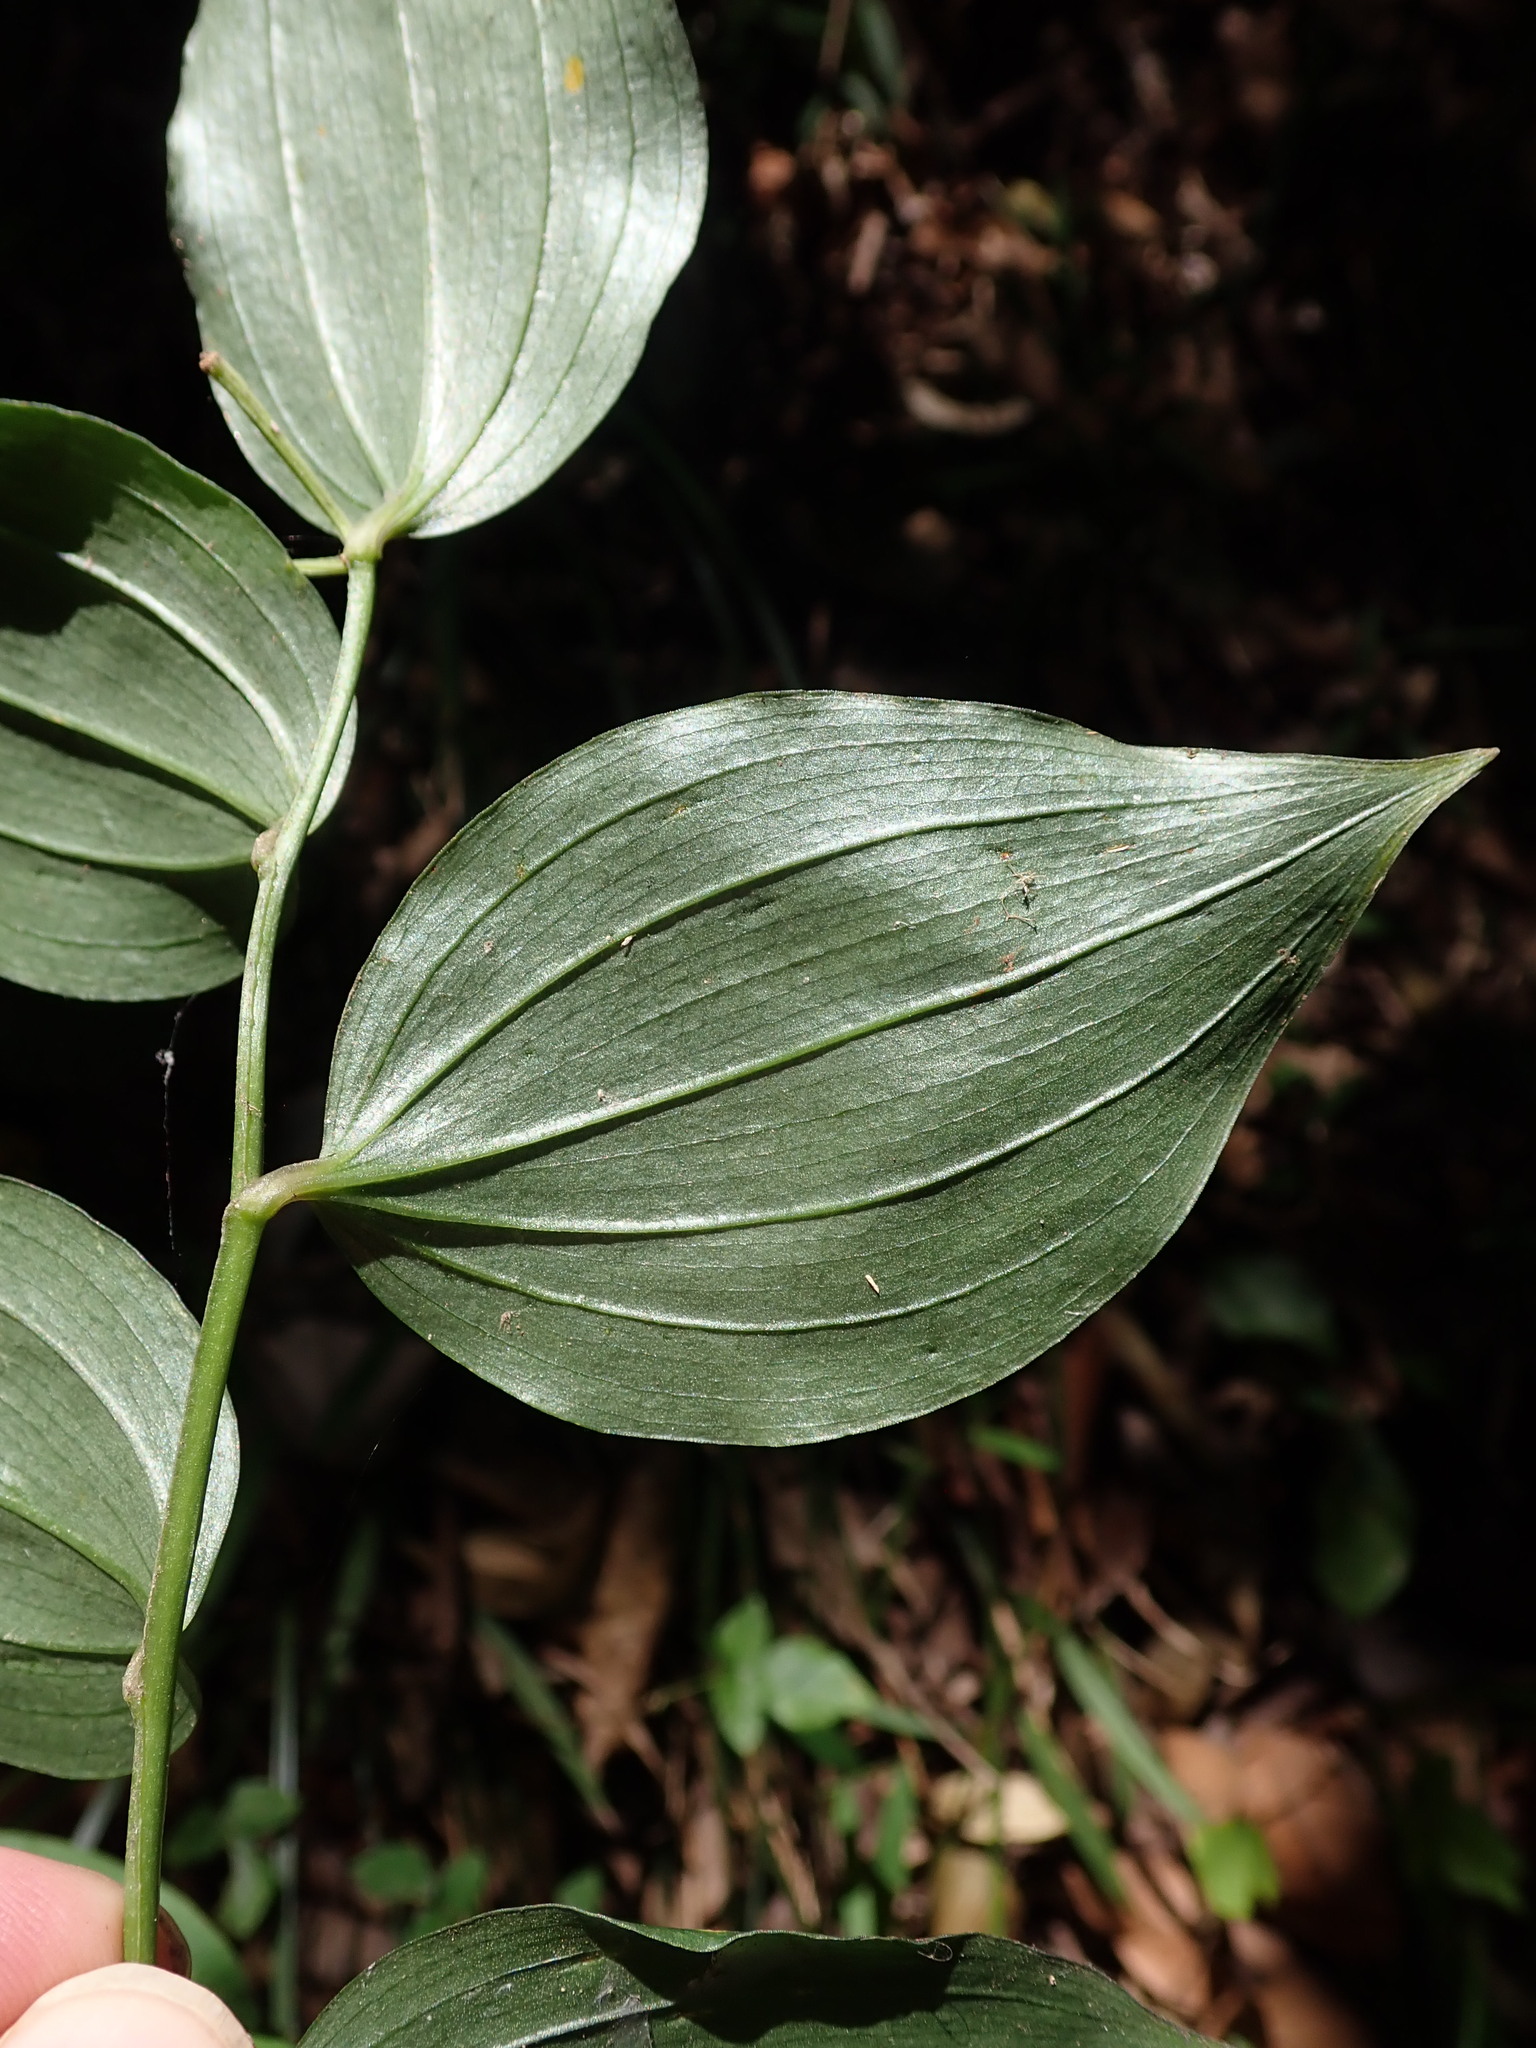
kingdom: Plantae
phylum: Tracheophyta
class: Liliopsida
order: Liliales
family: Colchicaceae
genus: Disporum
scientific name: Disporum cantoniense
